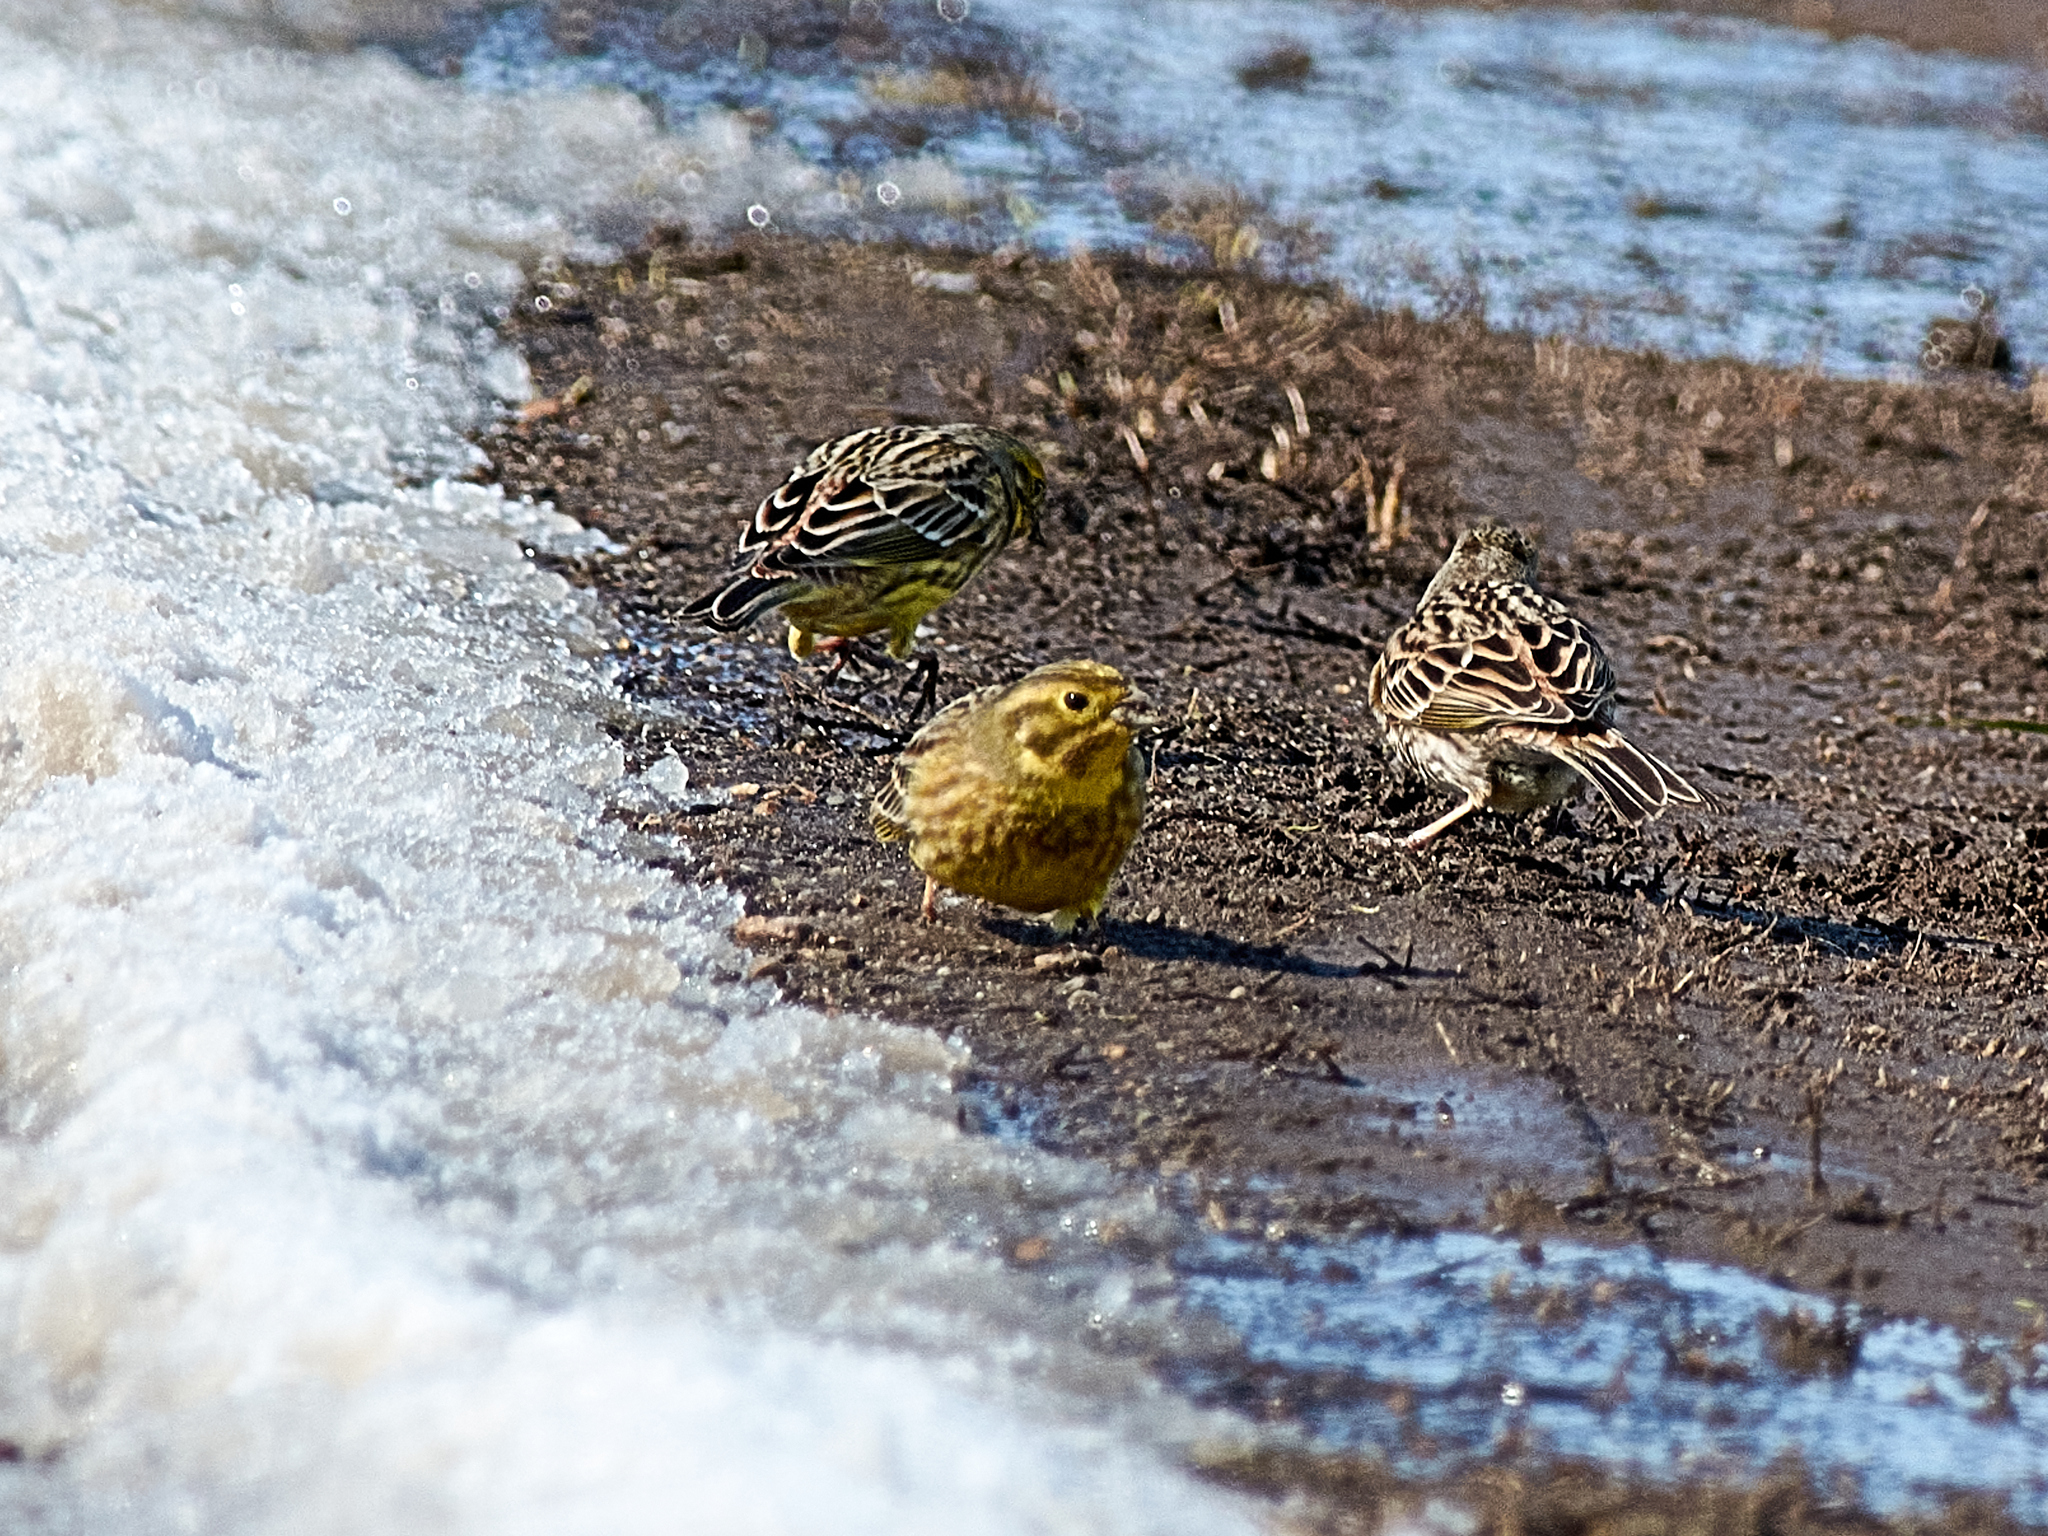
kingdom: Animalia
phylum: Chordata
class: Aves
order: Passeriformes
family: Emberizidae
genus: Emberiza
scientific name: Emberiza citrinella
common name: Yellowhammer
